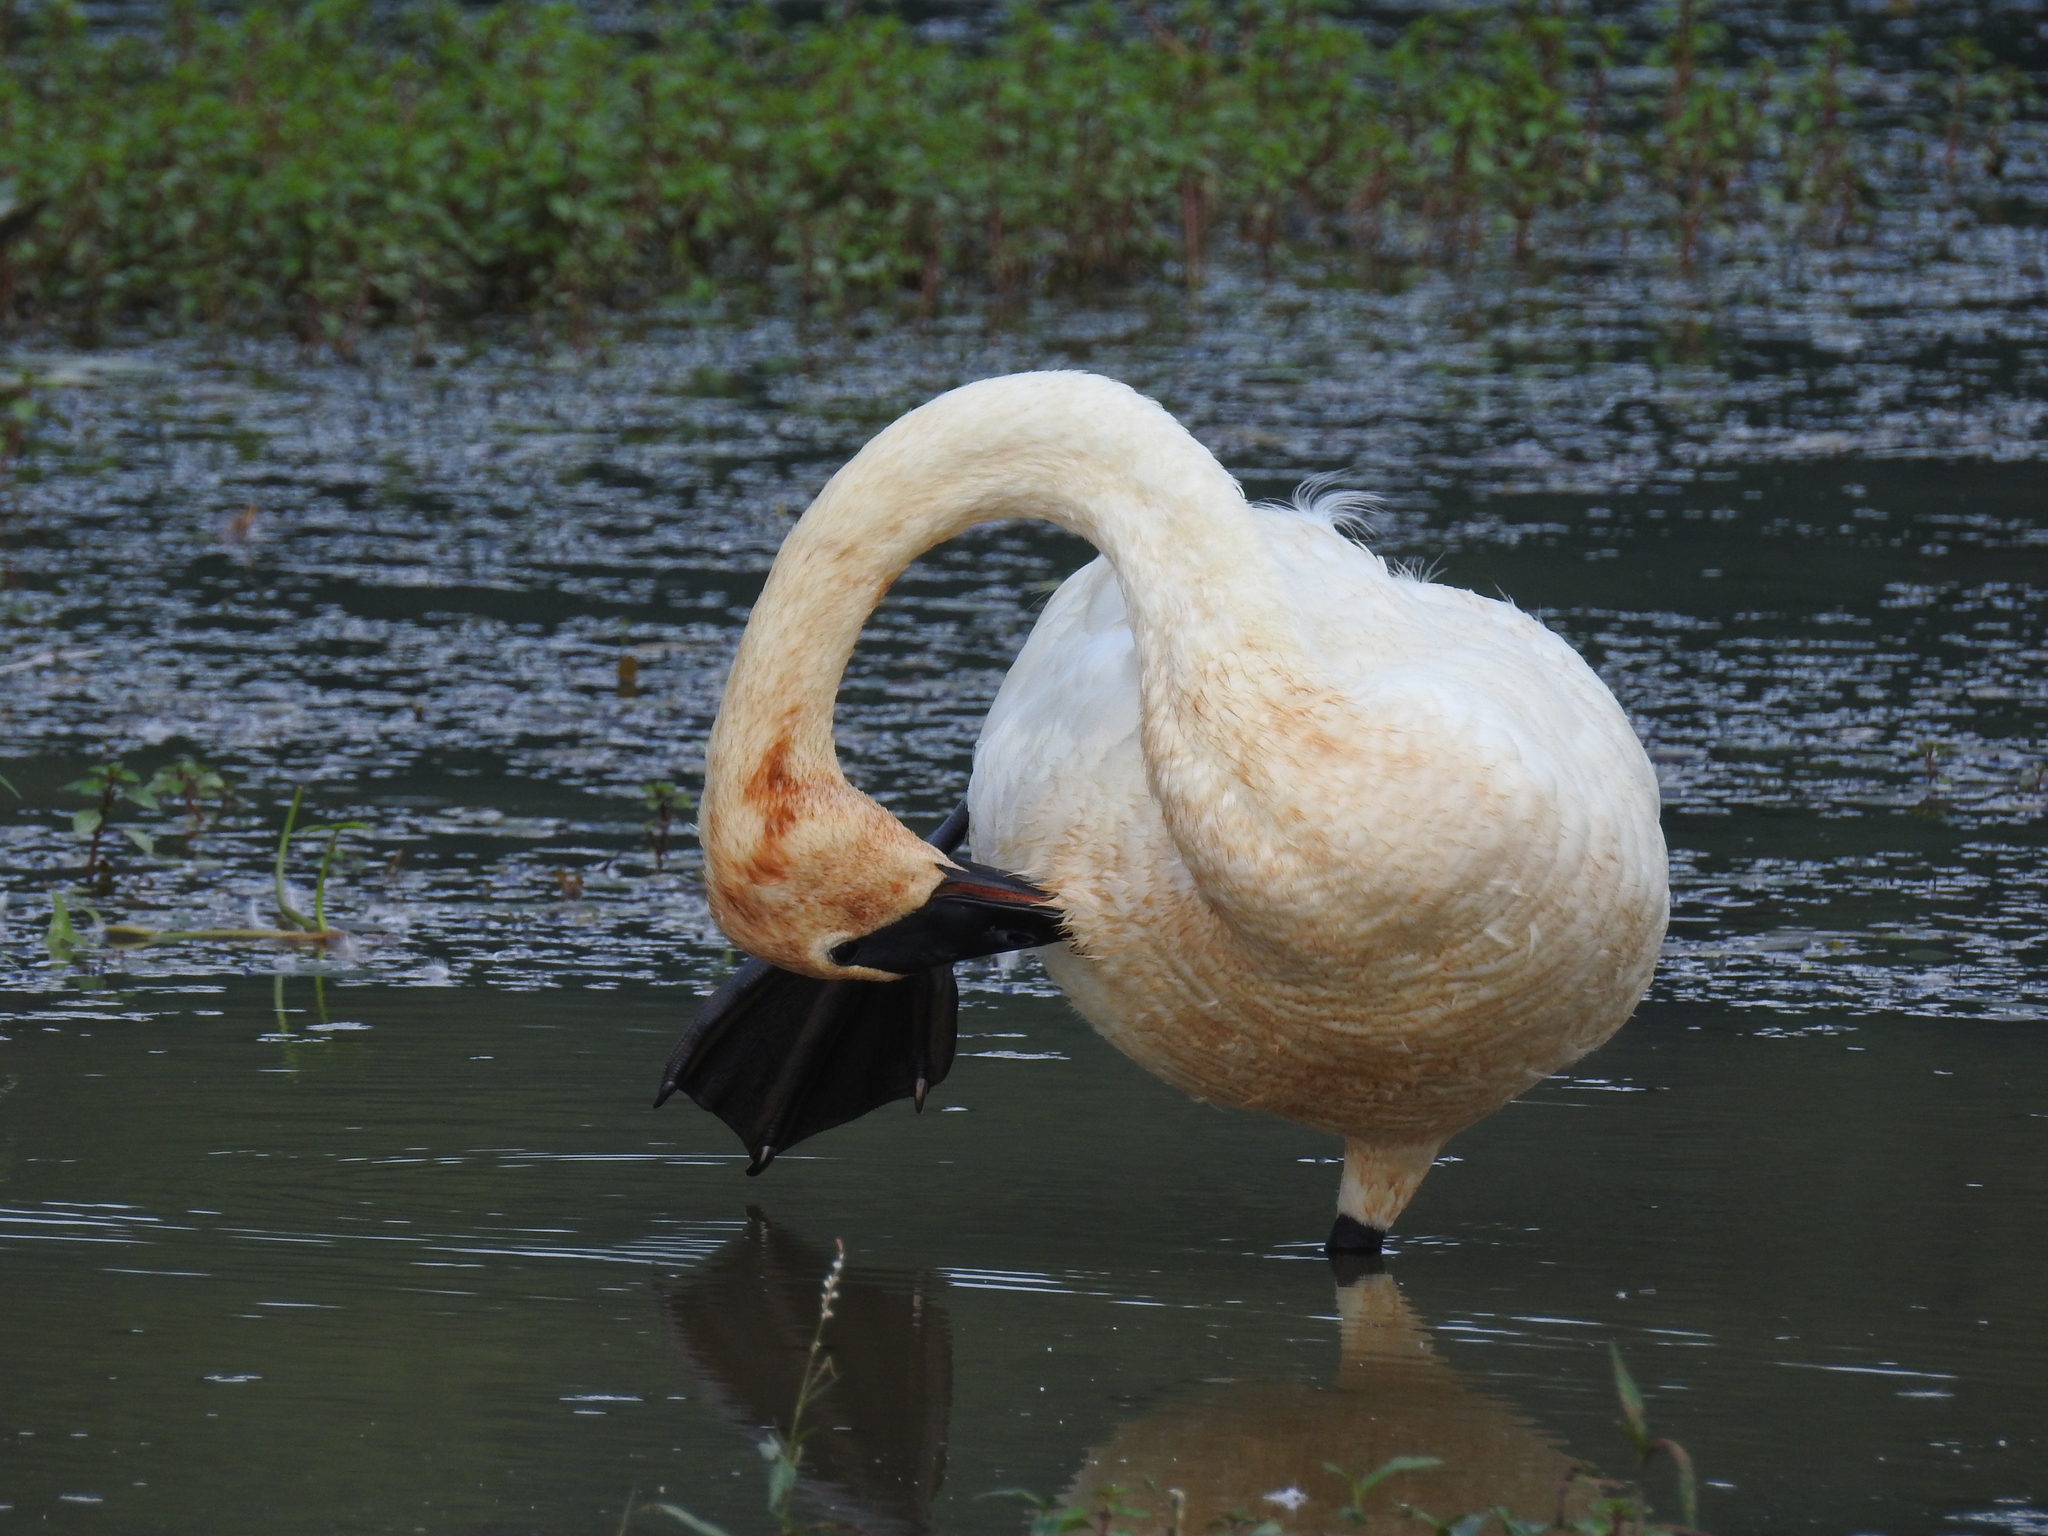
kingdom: Animalia
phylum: Chordata
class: Aves
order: Anseriformes
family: Anatidae
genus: Cygnus
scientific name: Cygnus buccinator
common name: Trumpeter swan
